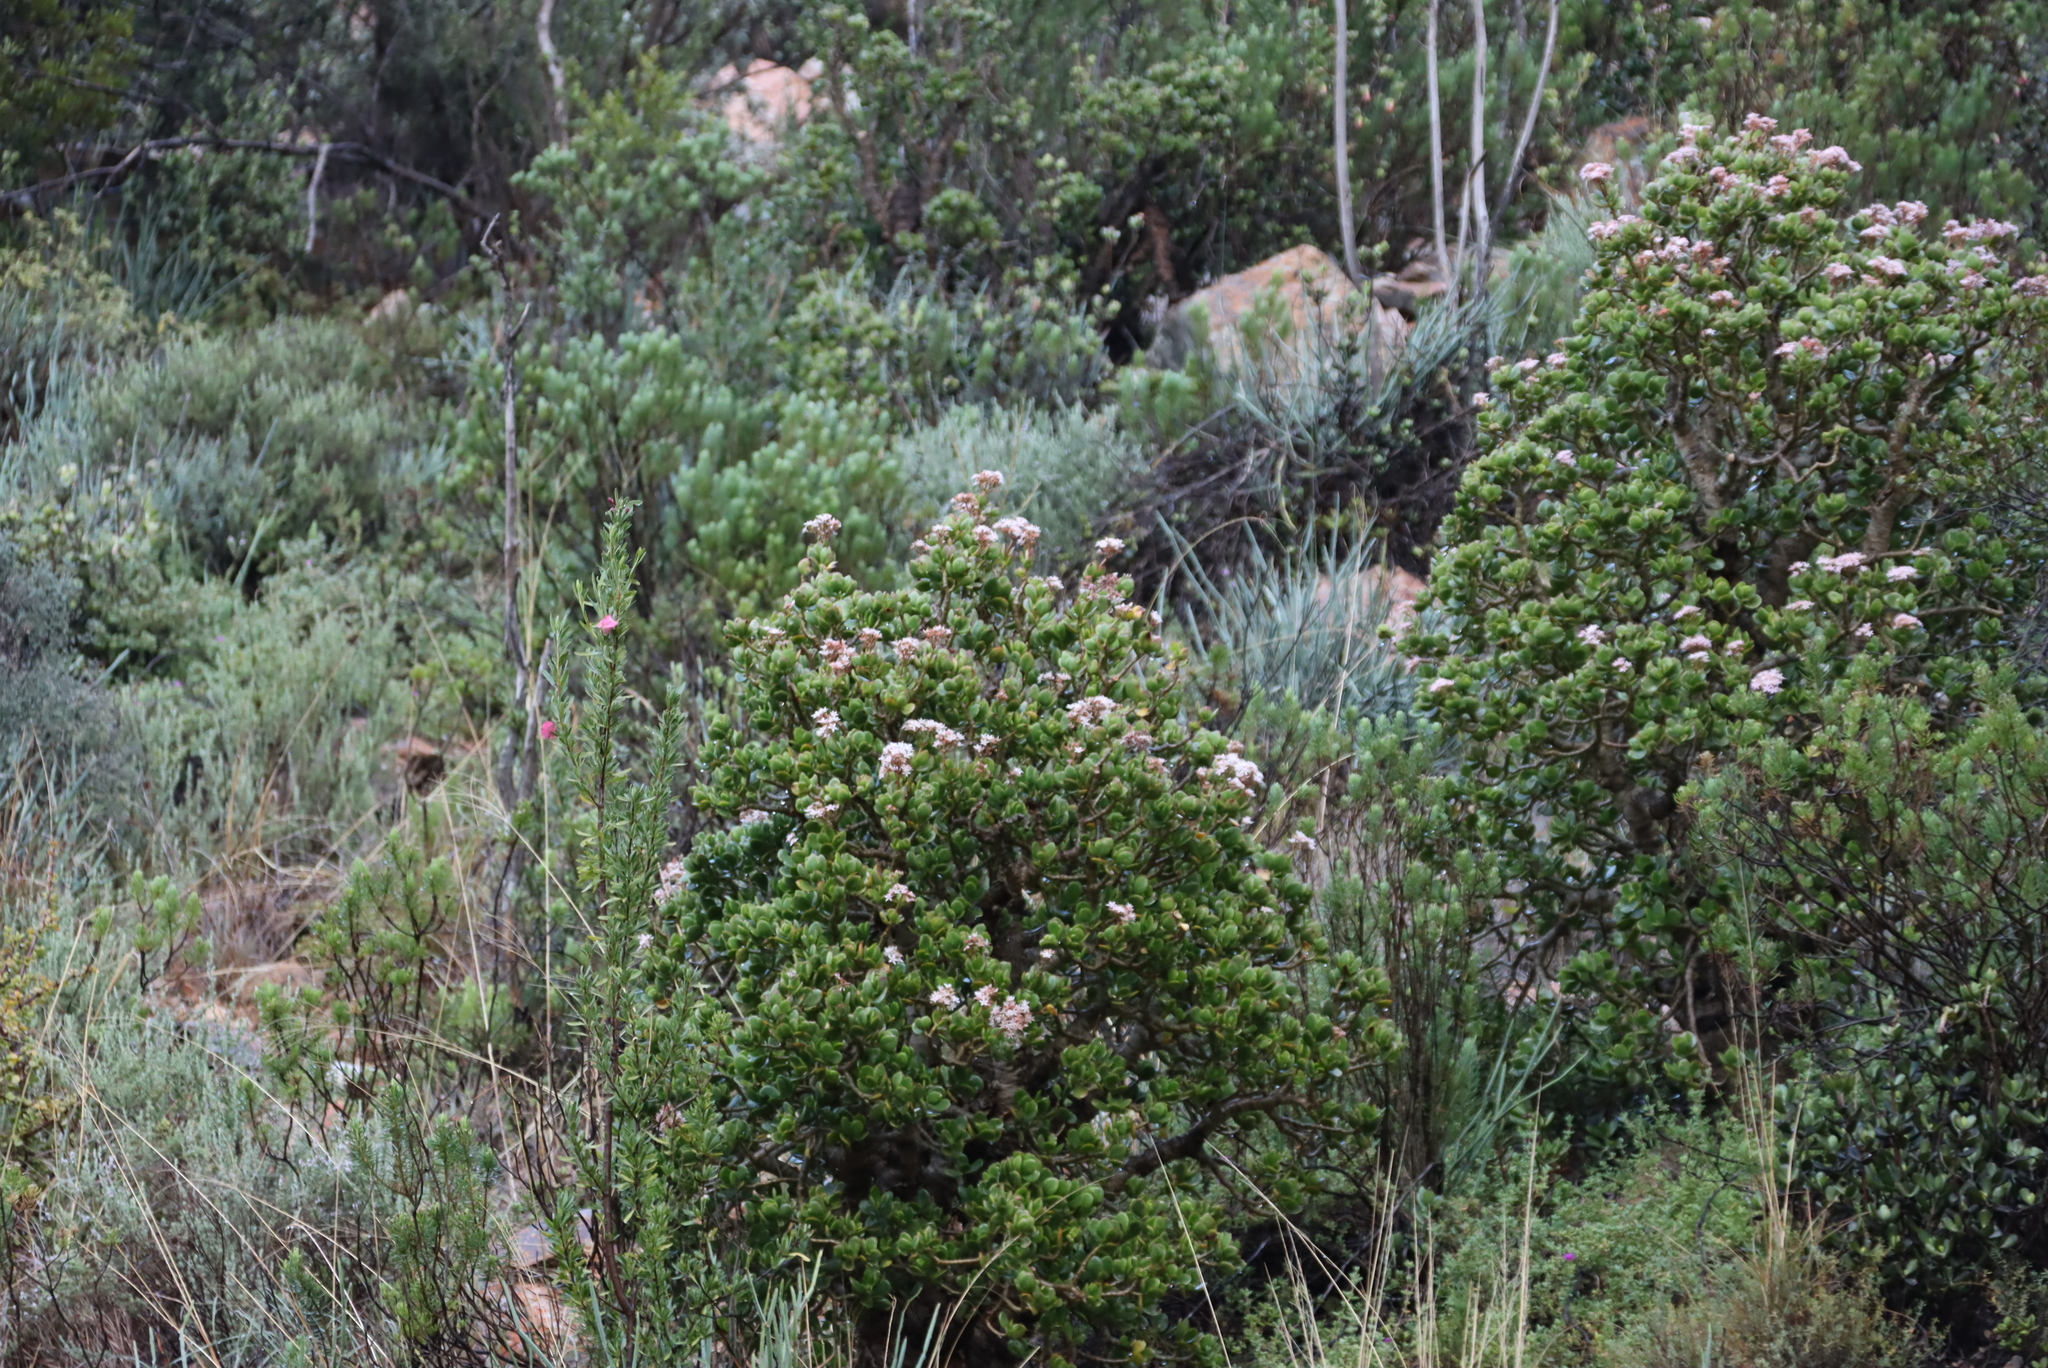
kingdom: Plantae
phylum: Tracheophyta
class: Magnoliopsida
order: Saxifragales
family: Crassulaceae
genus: Crassula
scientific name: Crassula ovata
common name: Jade plant
